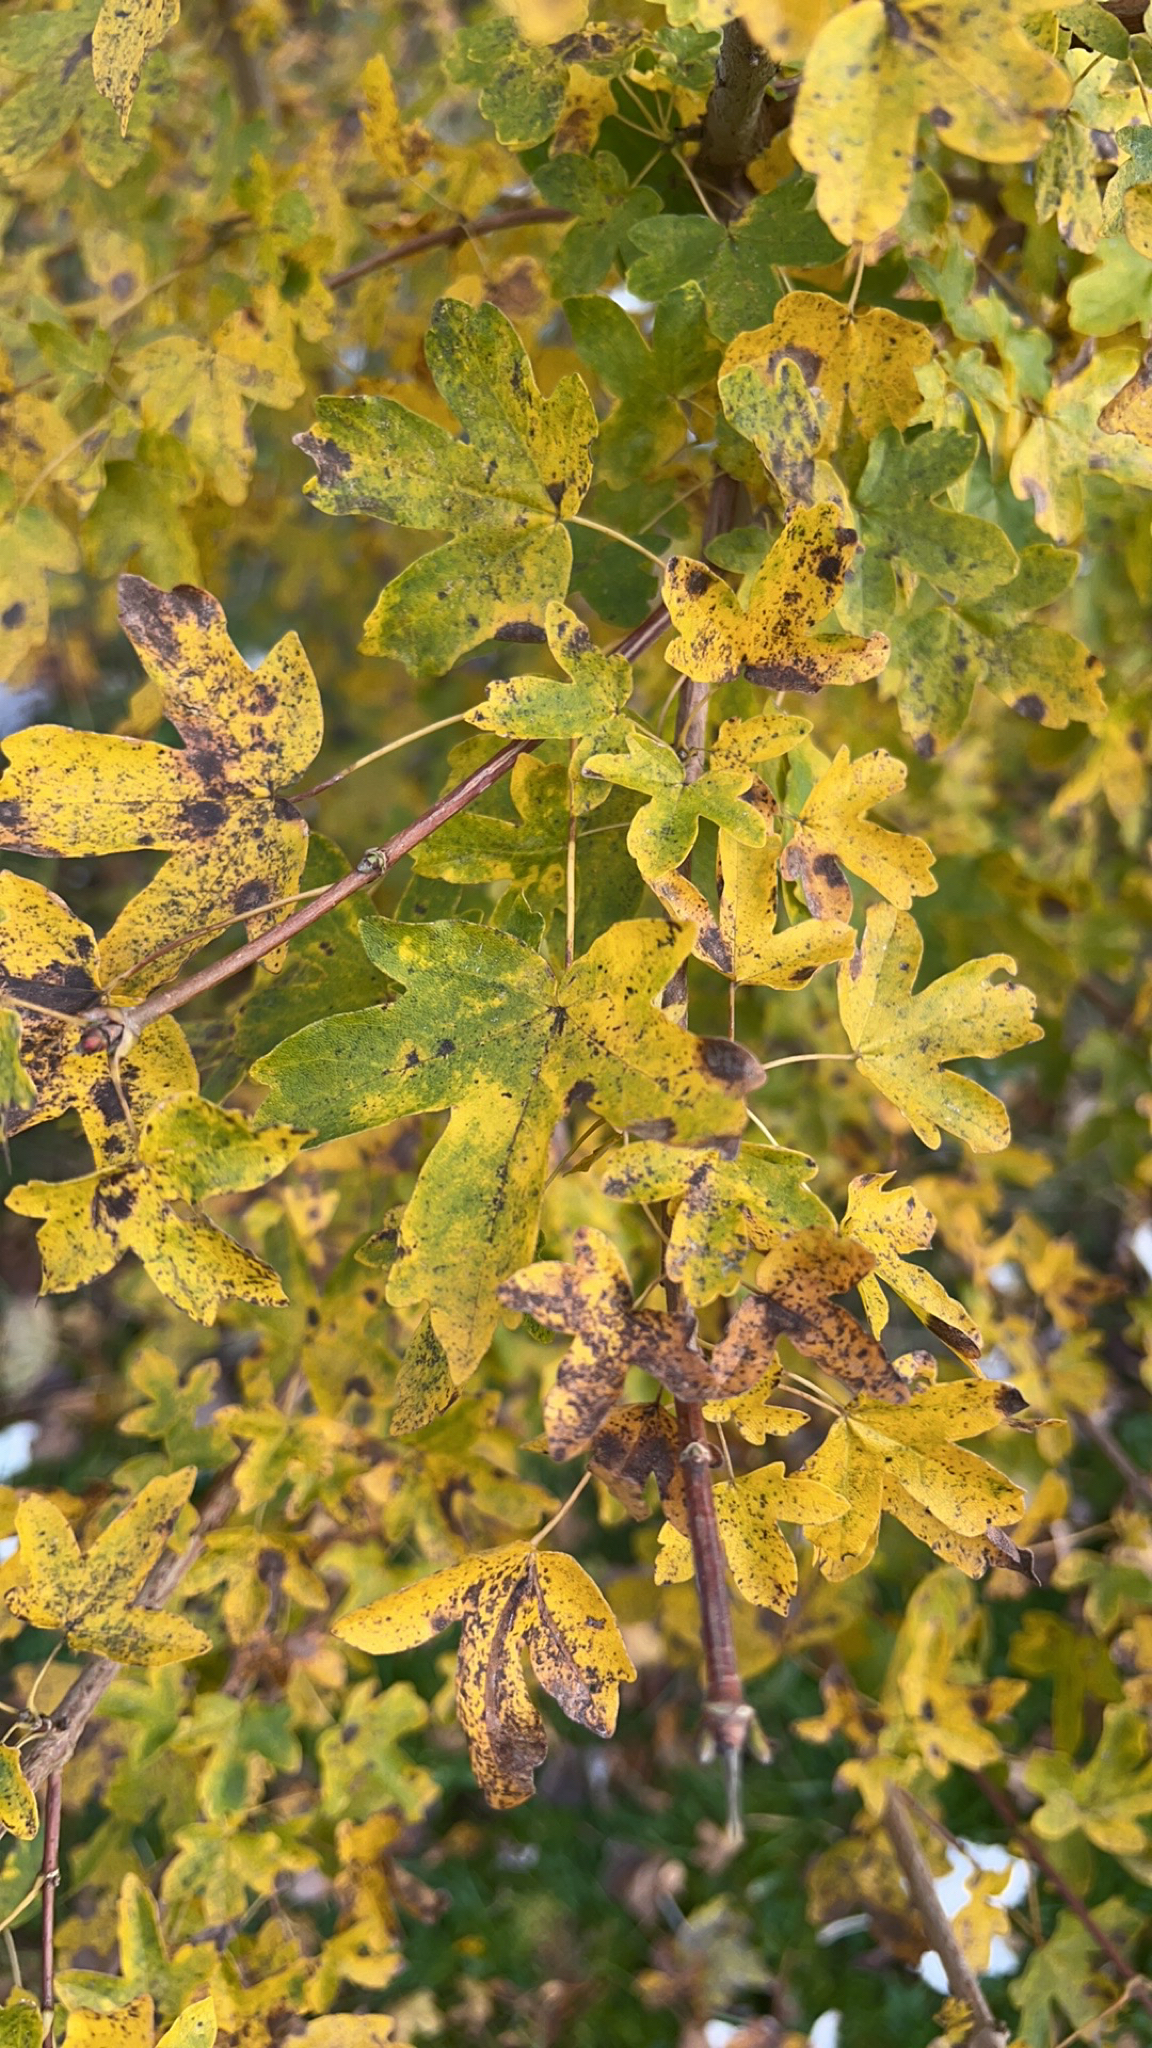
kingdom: Plantae
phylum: Tracheophyta
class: Magnoliopsida
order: Sapindales
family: Sapindaceae
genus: Acer
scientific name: Acer campestre
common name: Field maple
